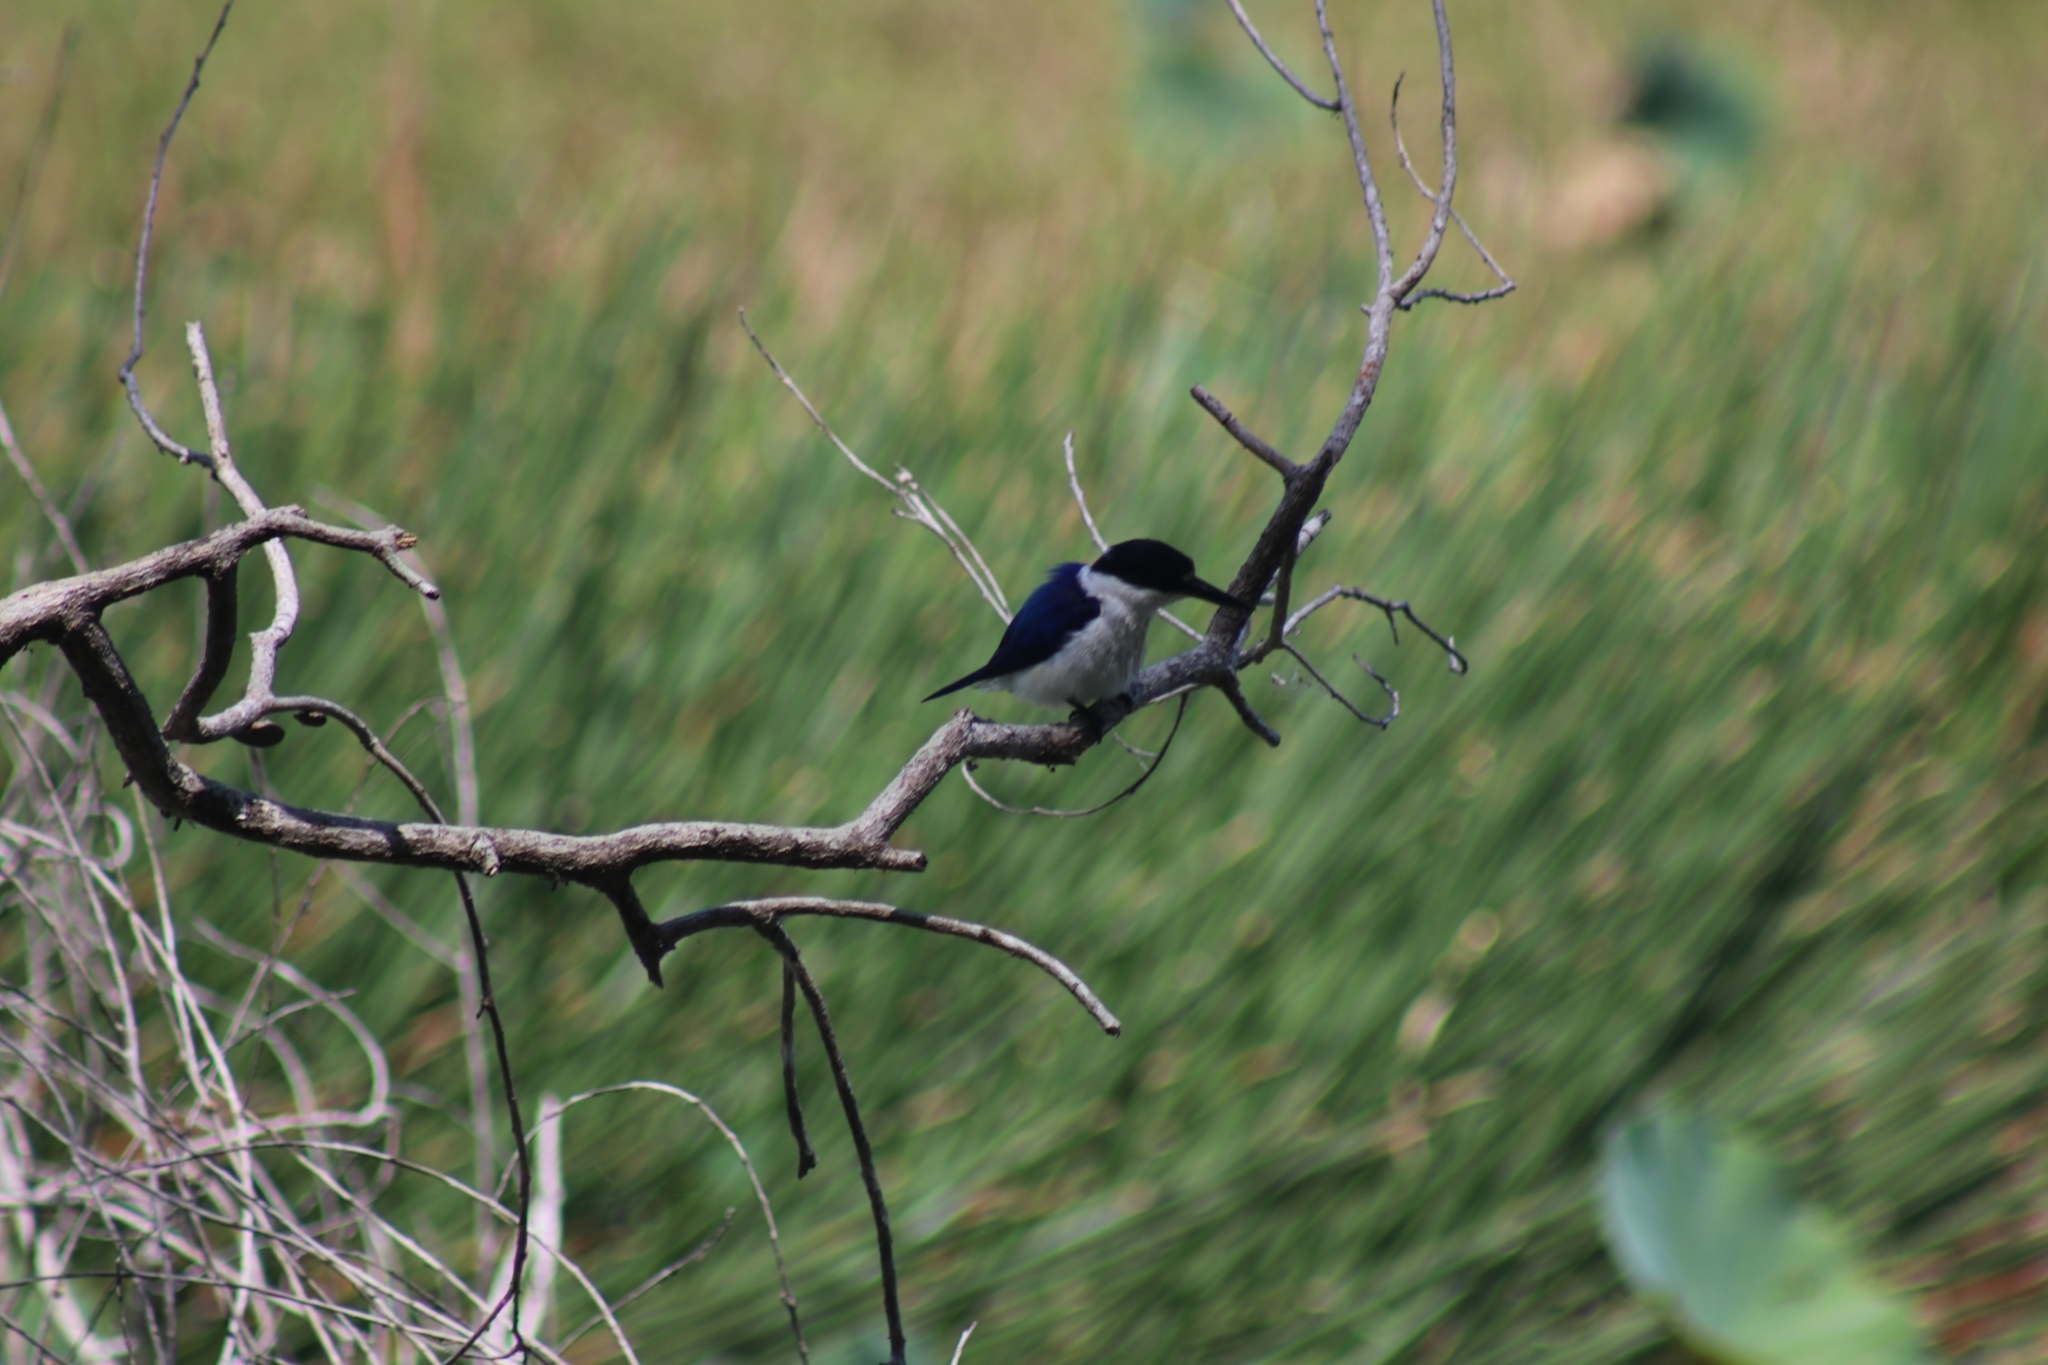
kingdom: Animalia
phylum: Chordata
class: Aves
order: Coraciiformes
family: Alcedinidae
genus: Todiramphus
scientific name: Todiramphus macleayii
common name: Forest kingfisher
